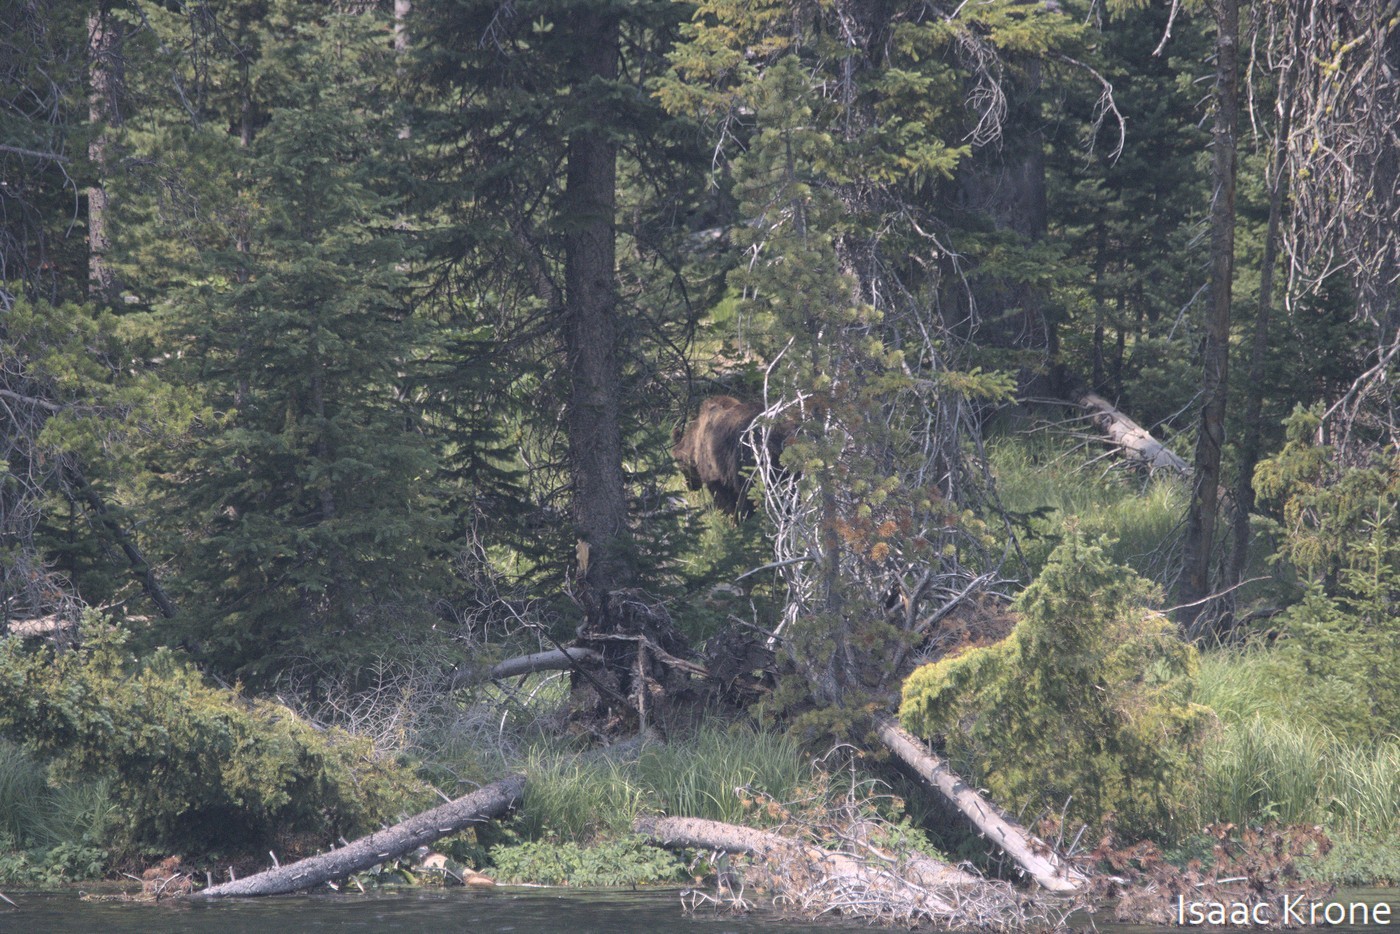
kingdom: Animalia
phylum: Chordata
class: Mammalia
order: Carnivora
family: Ursidae
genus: Ursus
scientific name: Ursus arctos
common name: Brown bear
